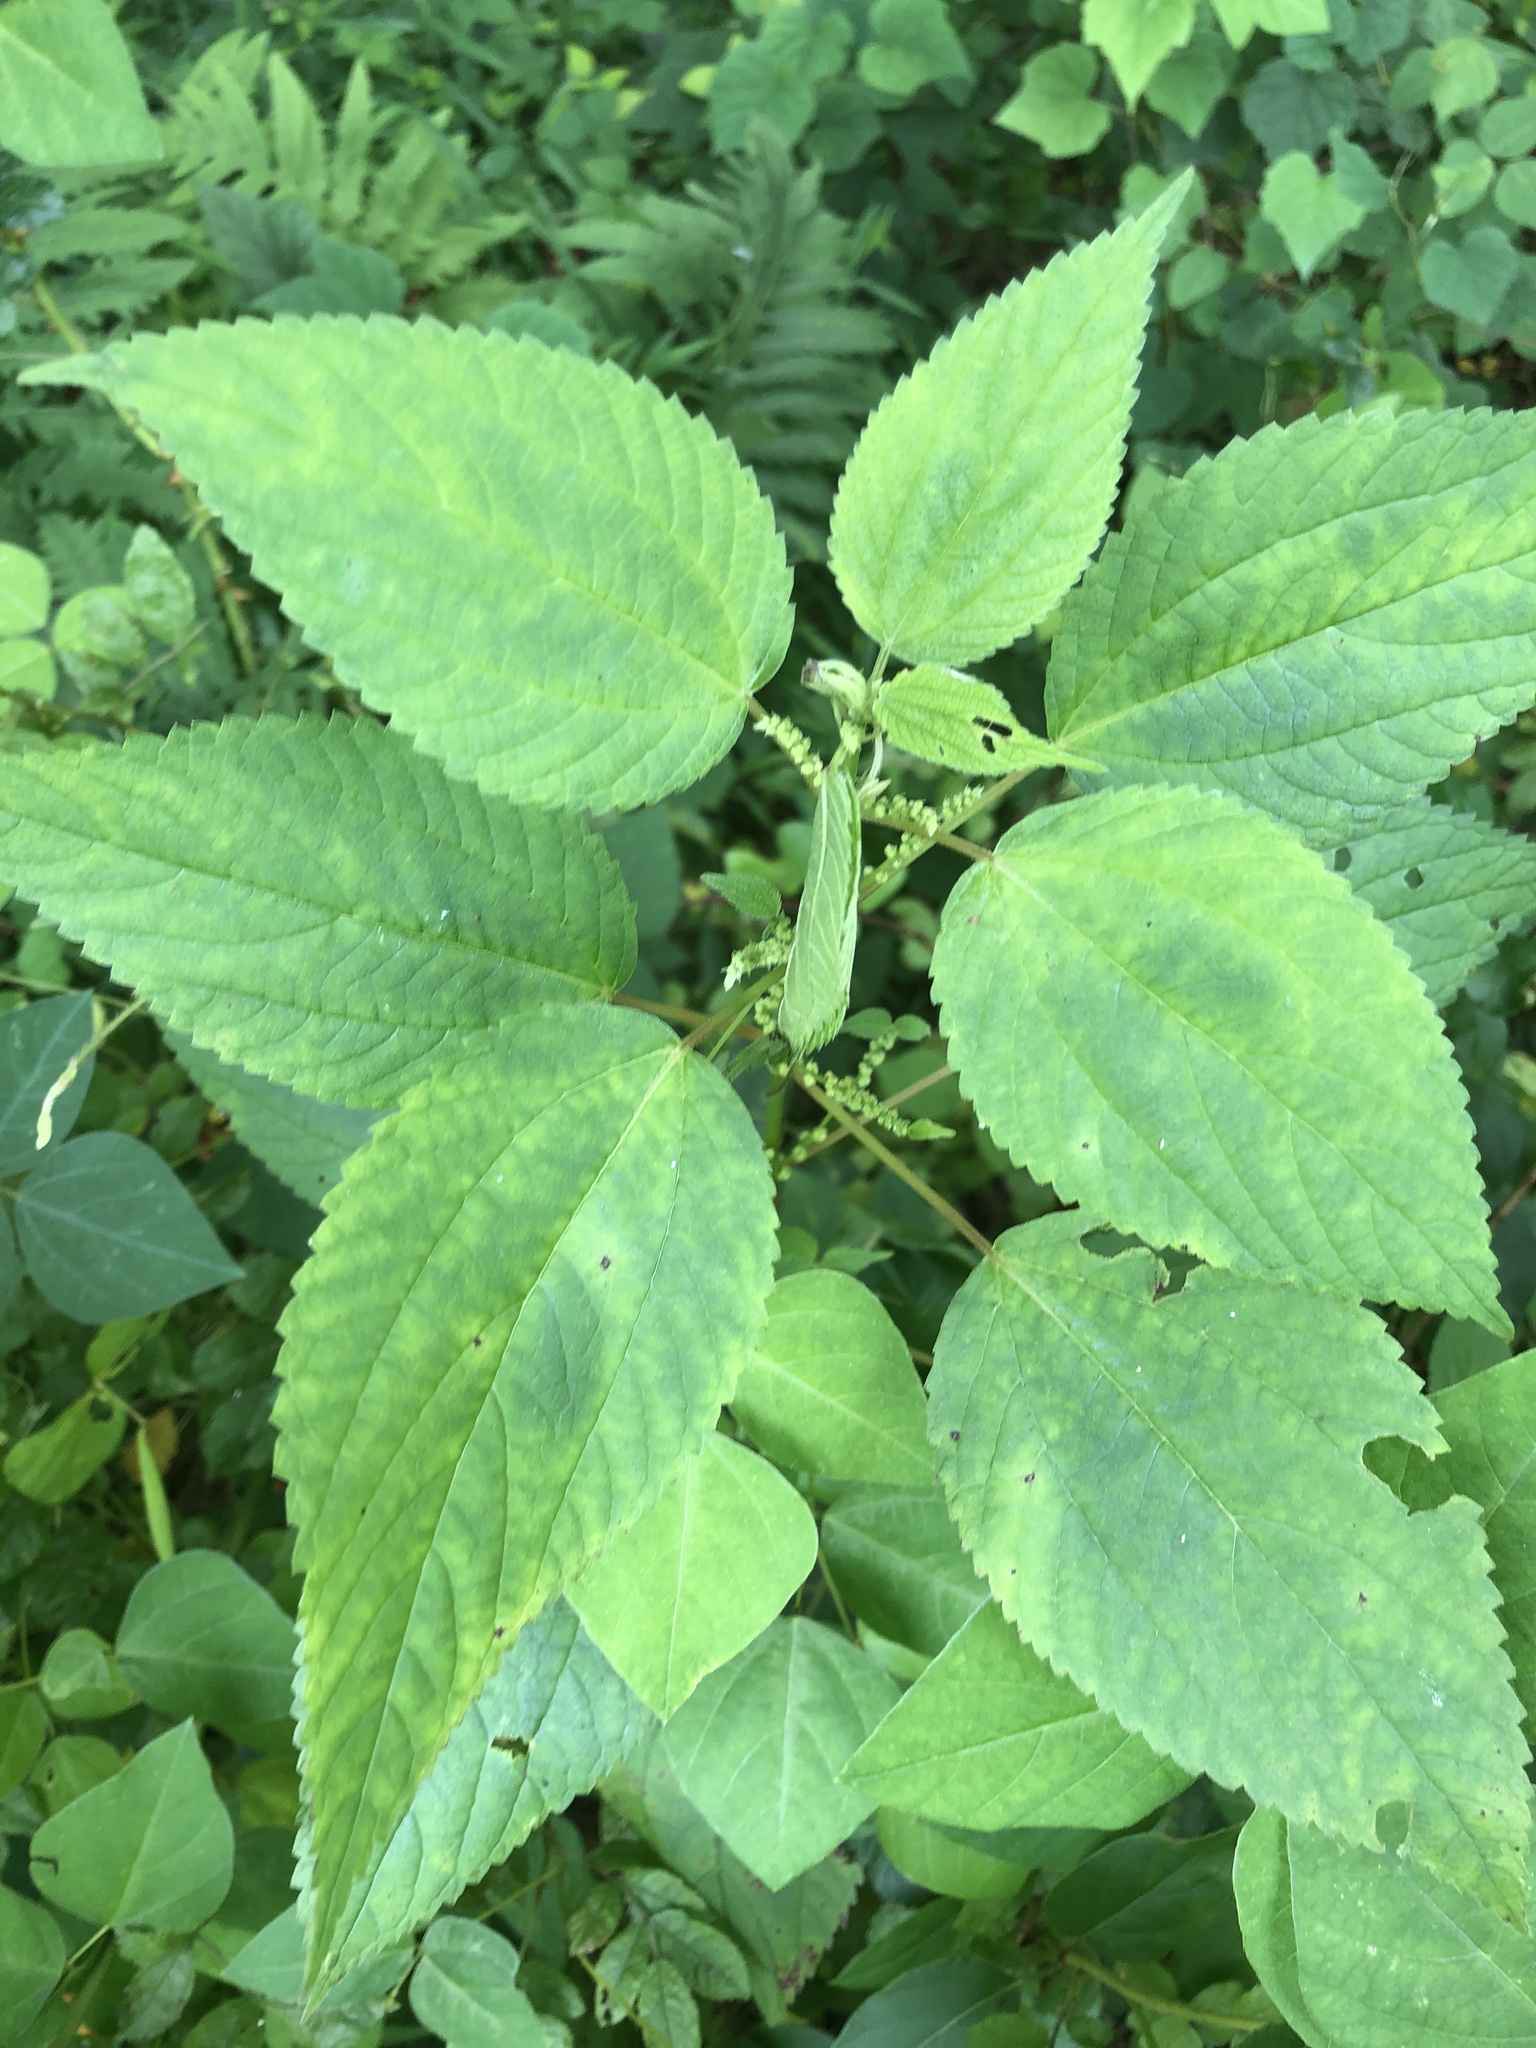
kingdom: Plantae
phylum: Tracheophyta
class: Magnoliopsida
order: Rosales
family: Urticaceae
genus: Boehmeria
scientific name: Boehmeria cylindrica
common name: Bog-hemp
